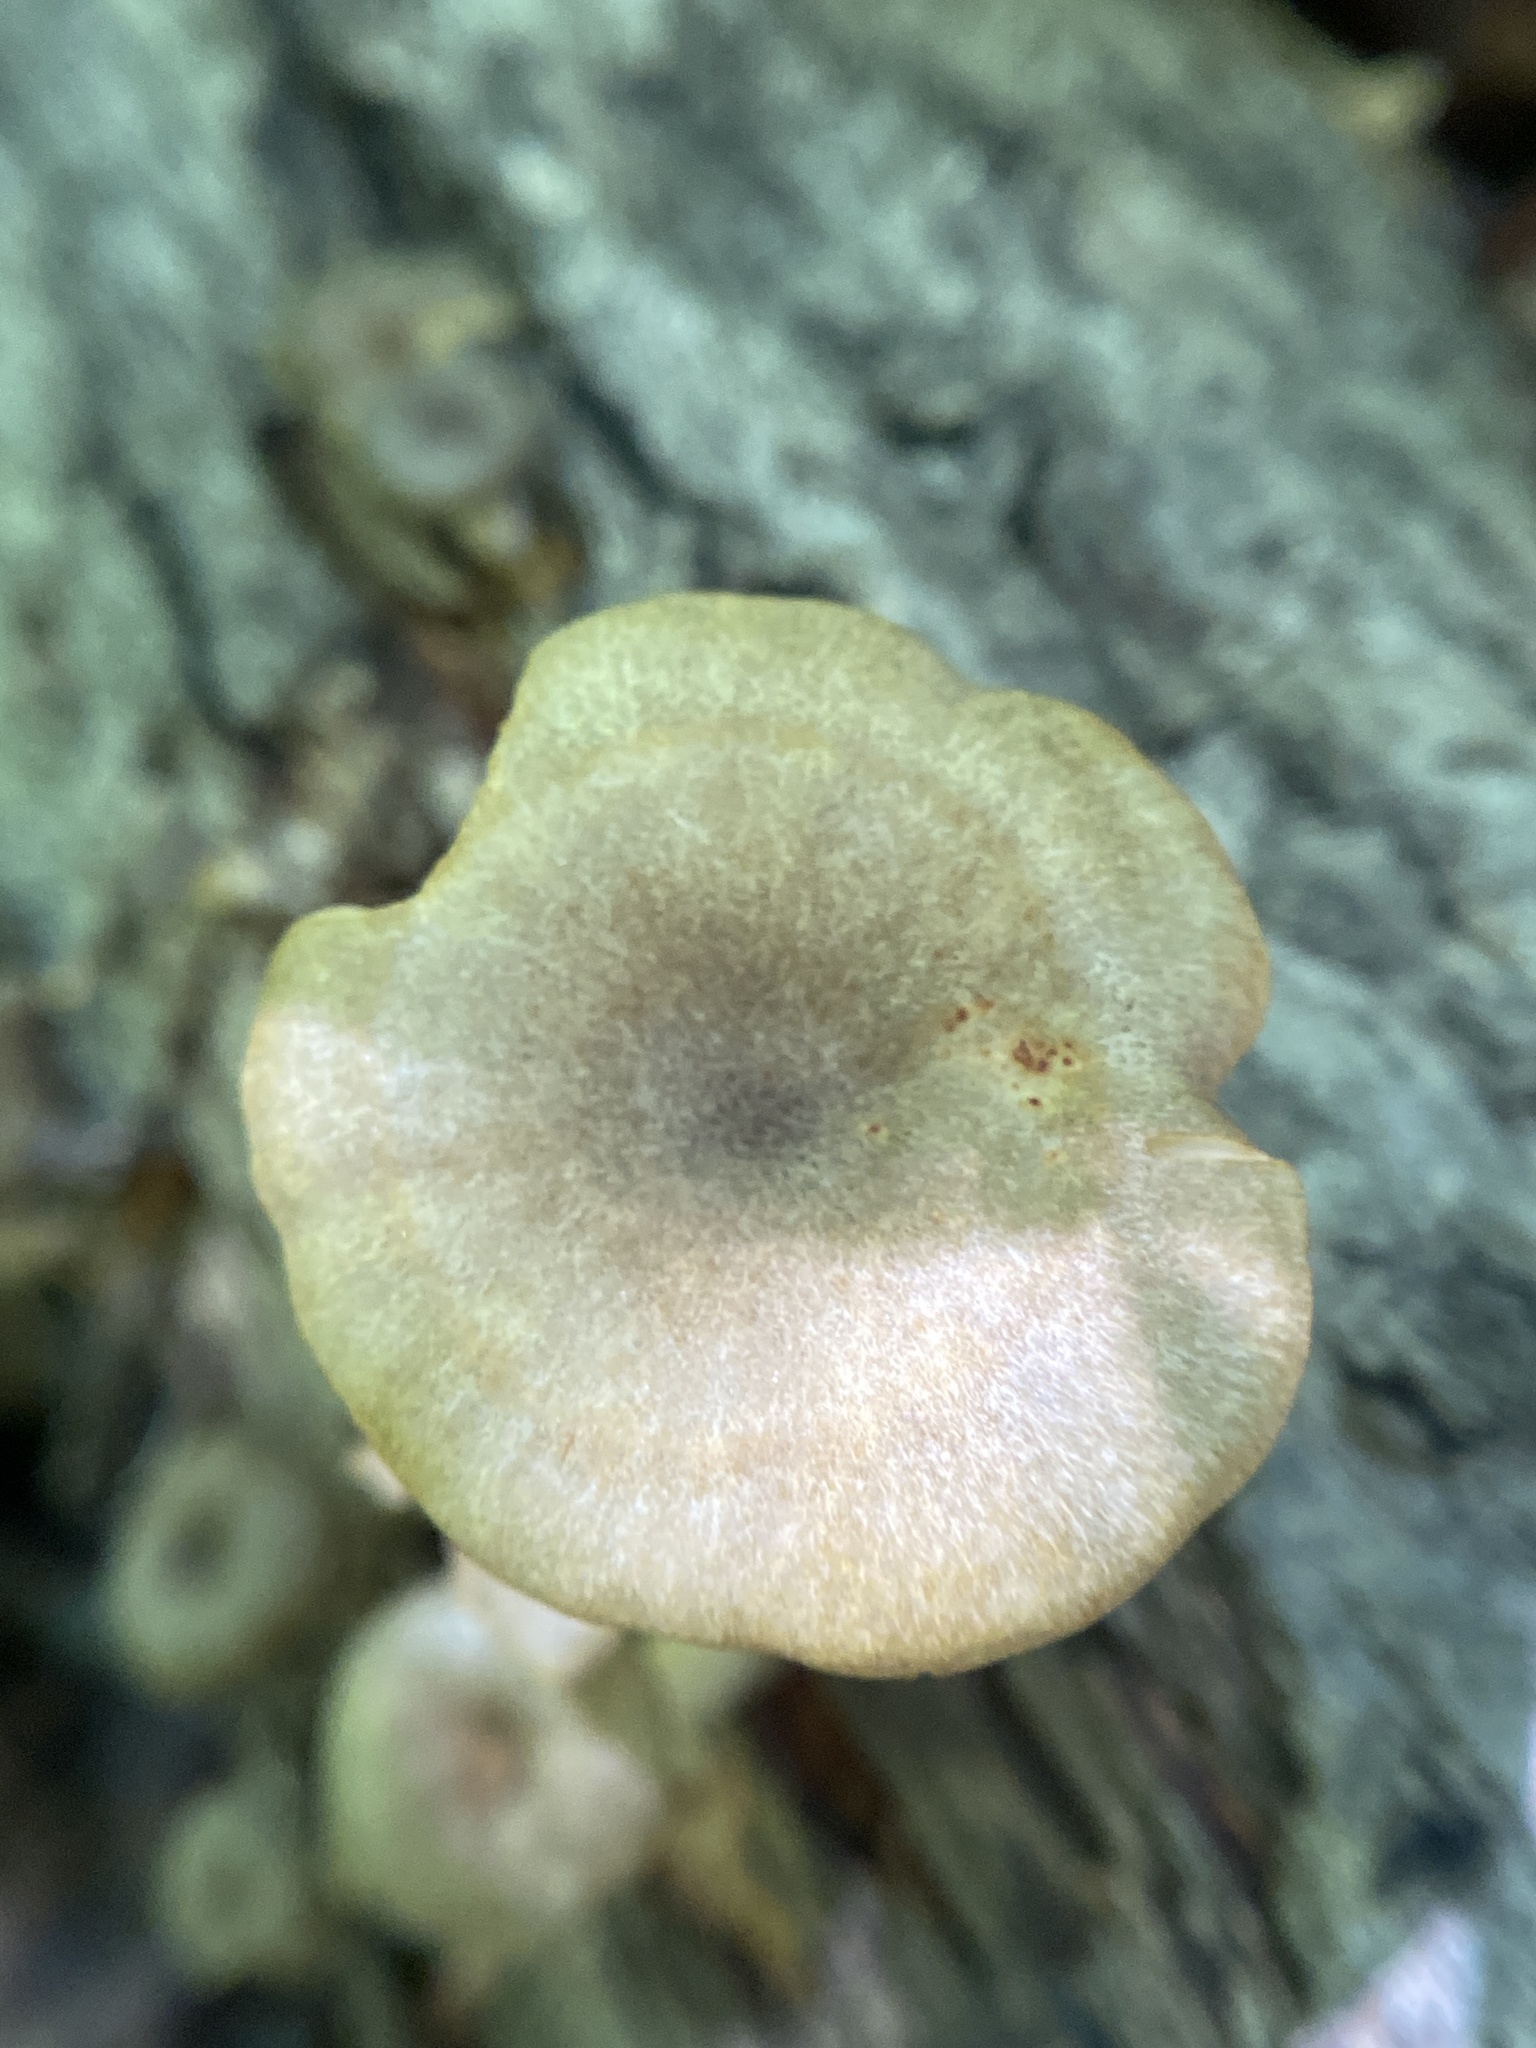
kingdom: Fungi
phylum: Basidiomycota
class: Agaricomycetes
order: Agaricales
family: Marasmiaceae
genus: Gerronema
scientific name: Gerronema strombodes
